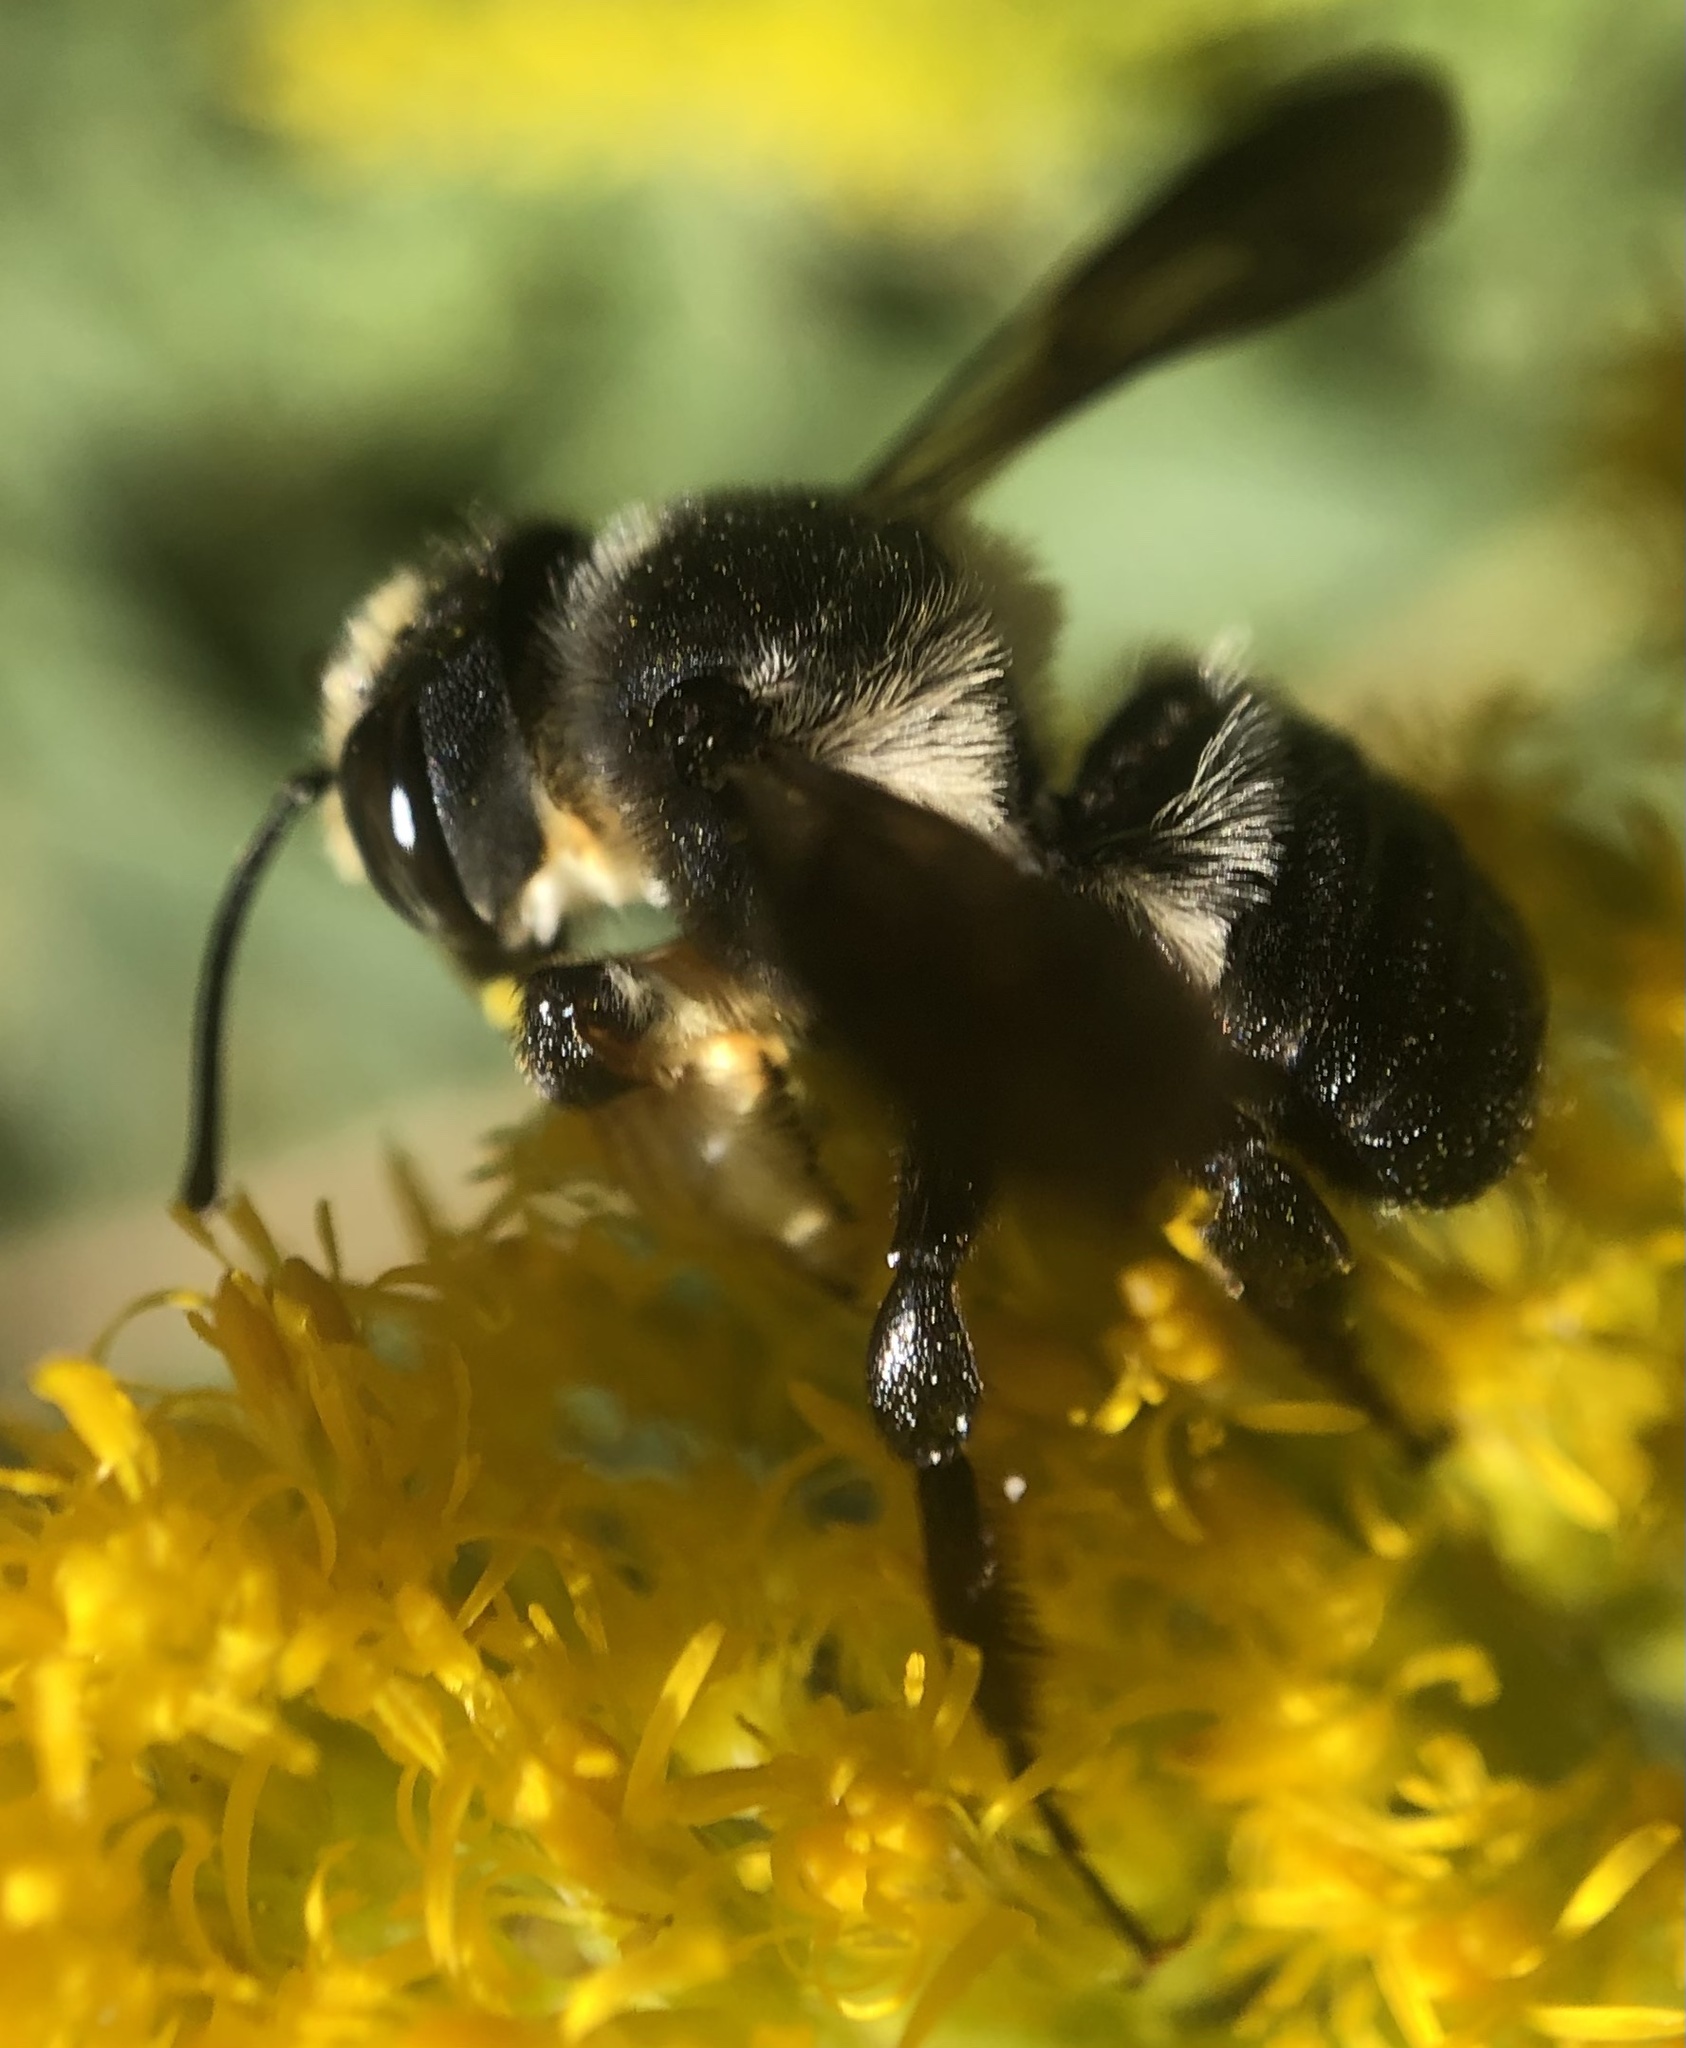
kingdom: Animalia
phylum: Arthropoda
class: Insecta
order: Hymenoptera
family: Megachilidae
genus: Megachile
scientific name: Megachile xylocopoides
